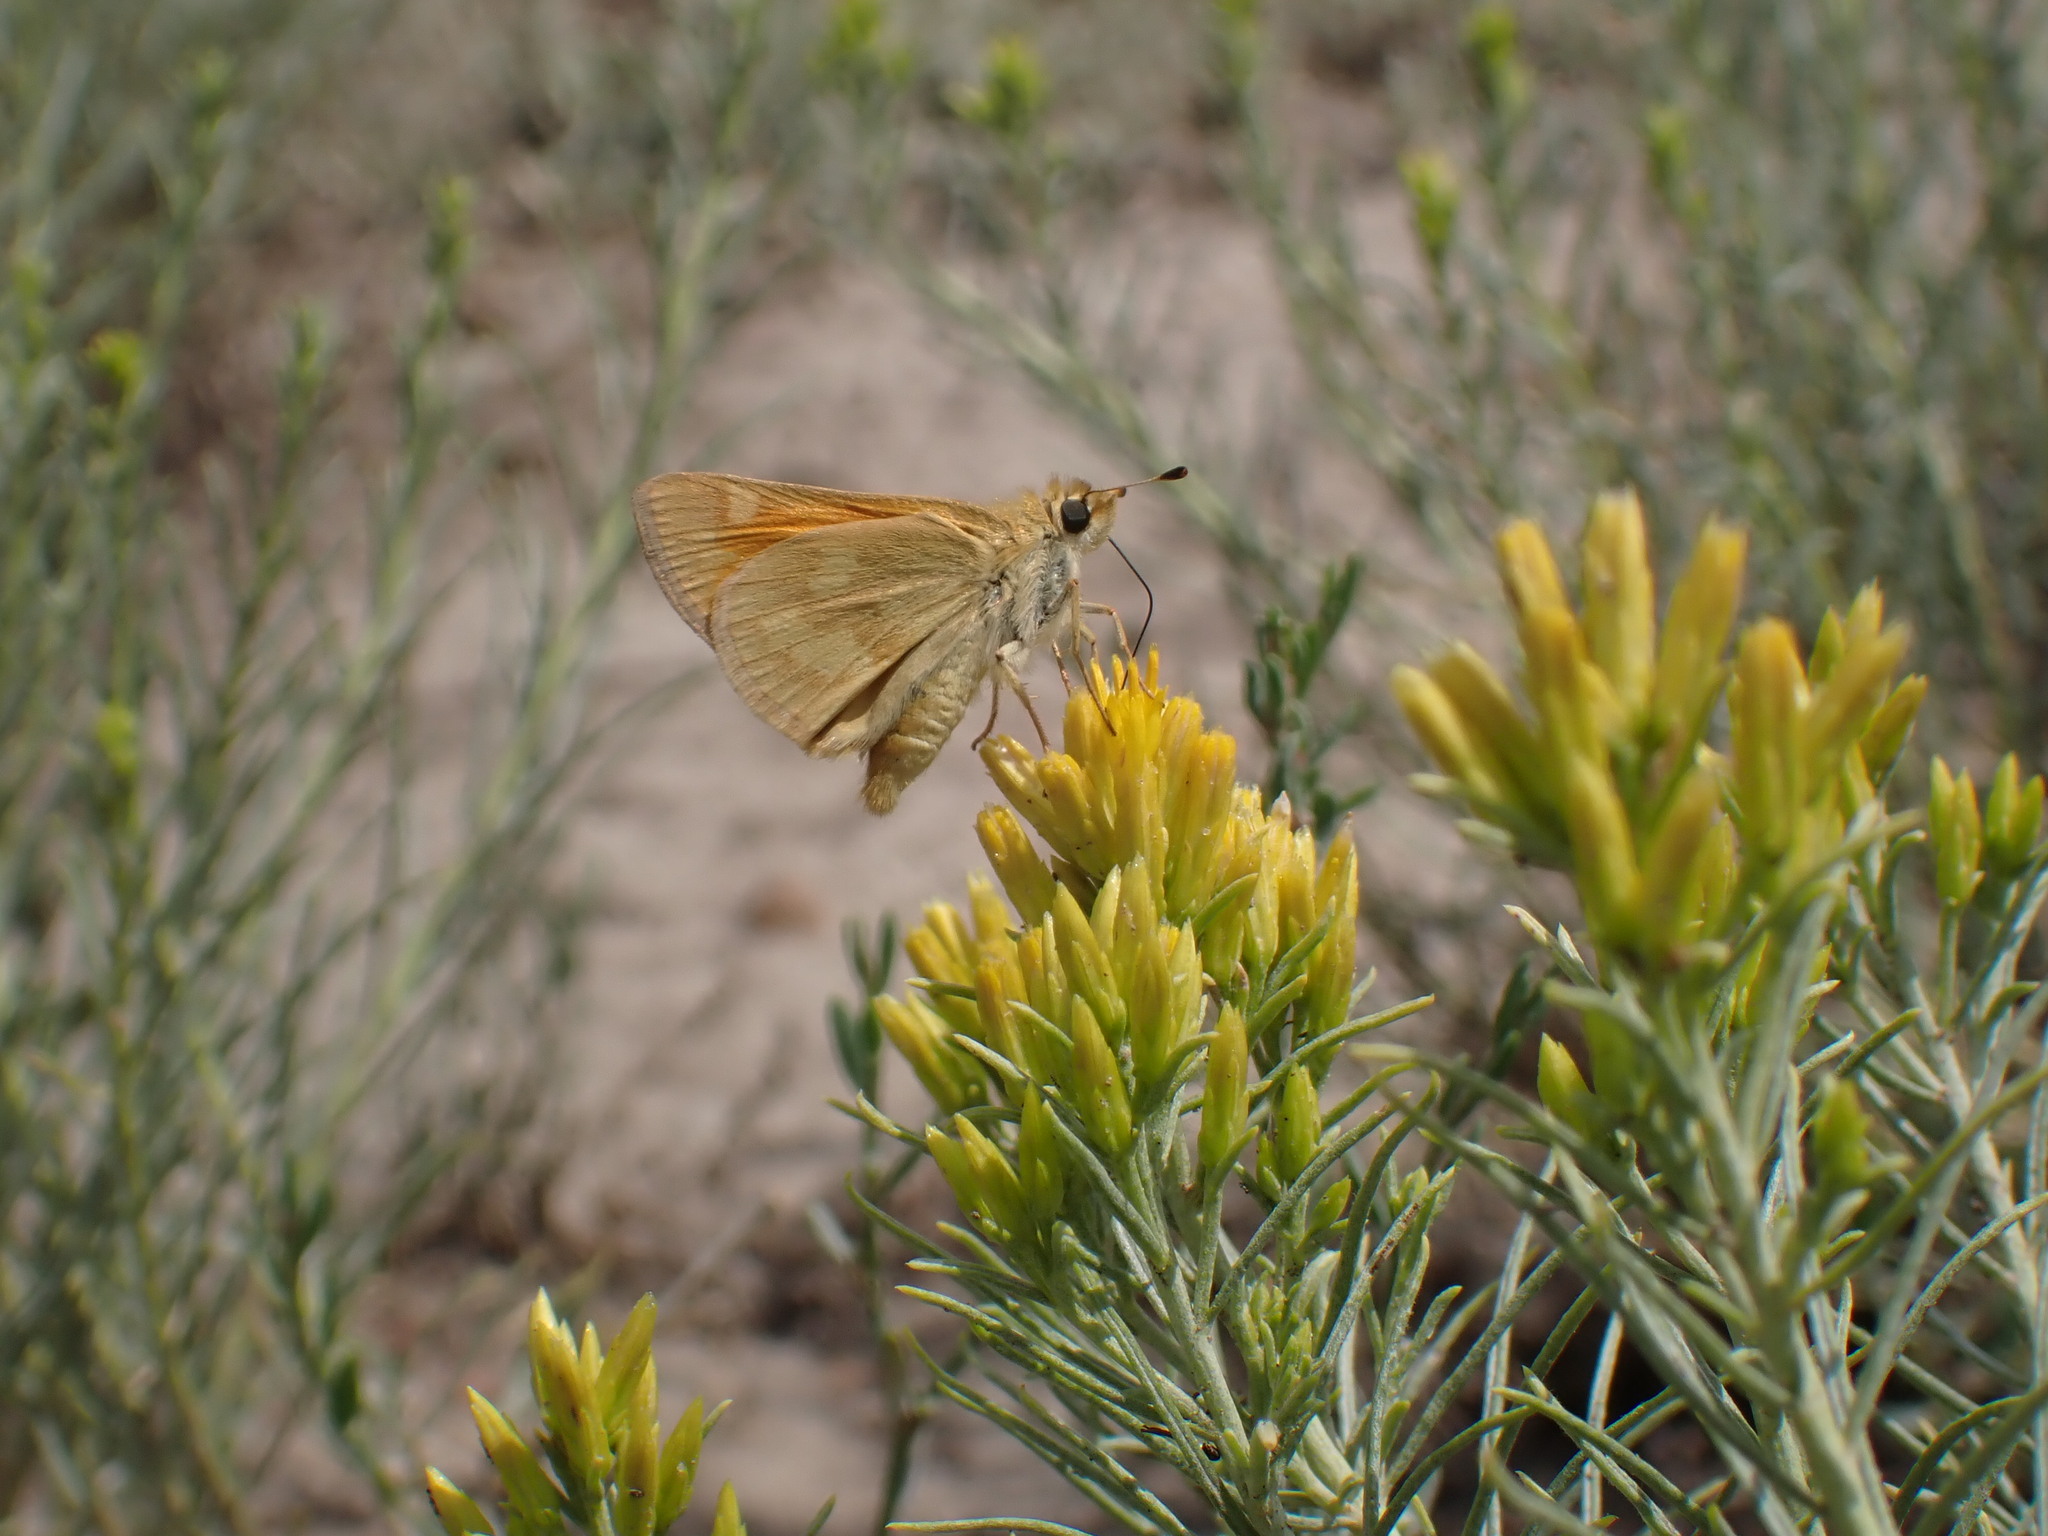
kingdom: Animalia
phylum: Arthropoda
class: Insecta
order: Lepidoptera
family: Hesperiidae
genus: Ochlodes
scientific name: Ochlodes sylvanoides
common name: Woodland skipper
